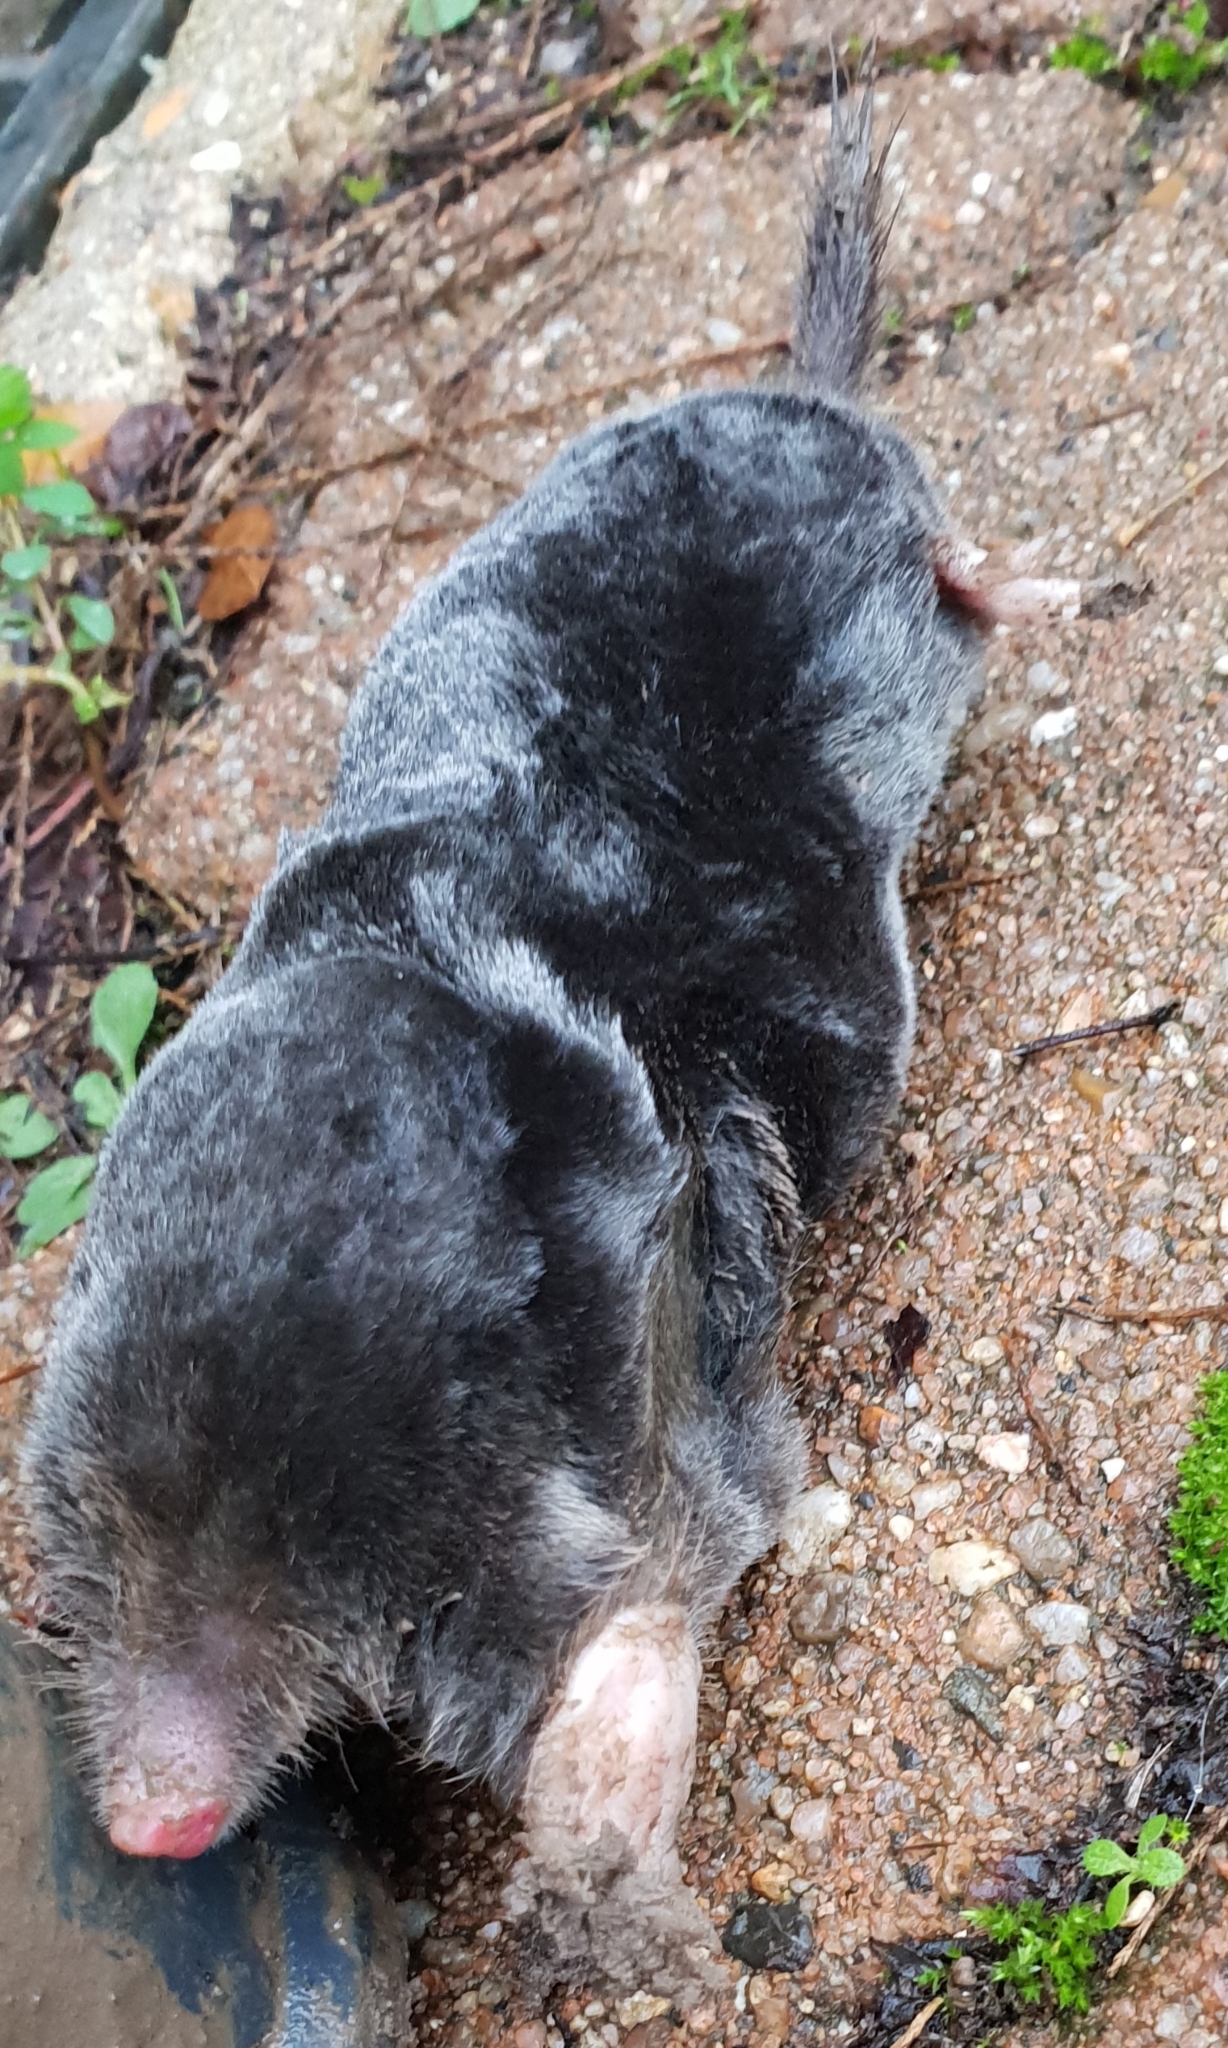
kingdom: Animalia
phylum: Chordata
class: Mammalia
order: Soricomorpha
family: Talpidae
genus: Talpa
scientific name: Talpa europaea
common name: European mole
